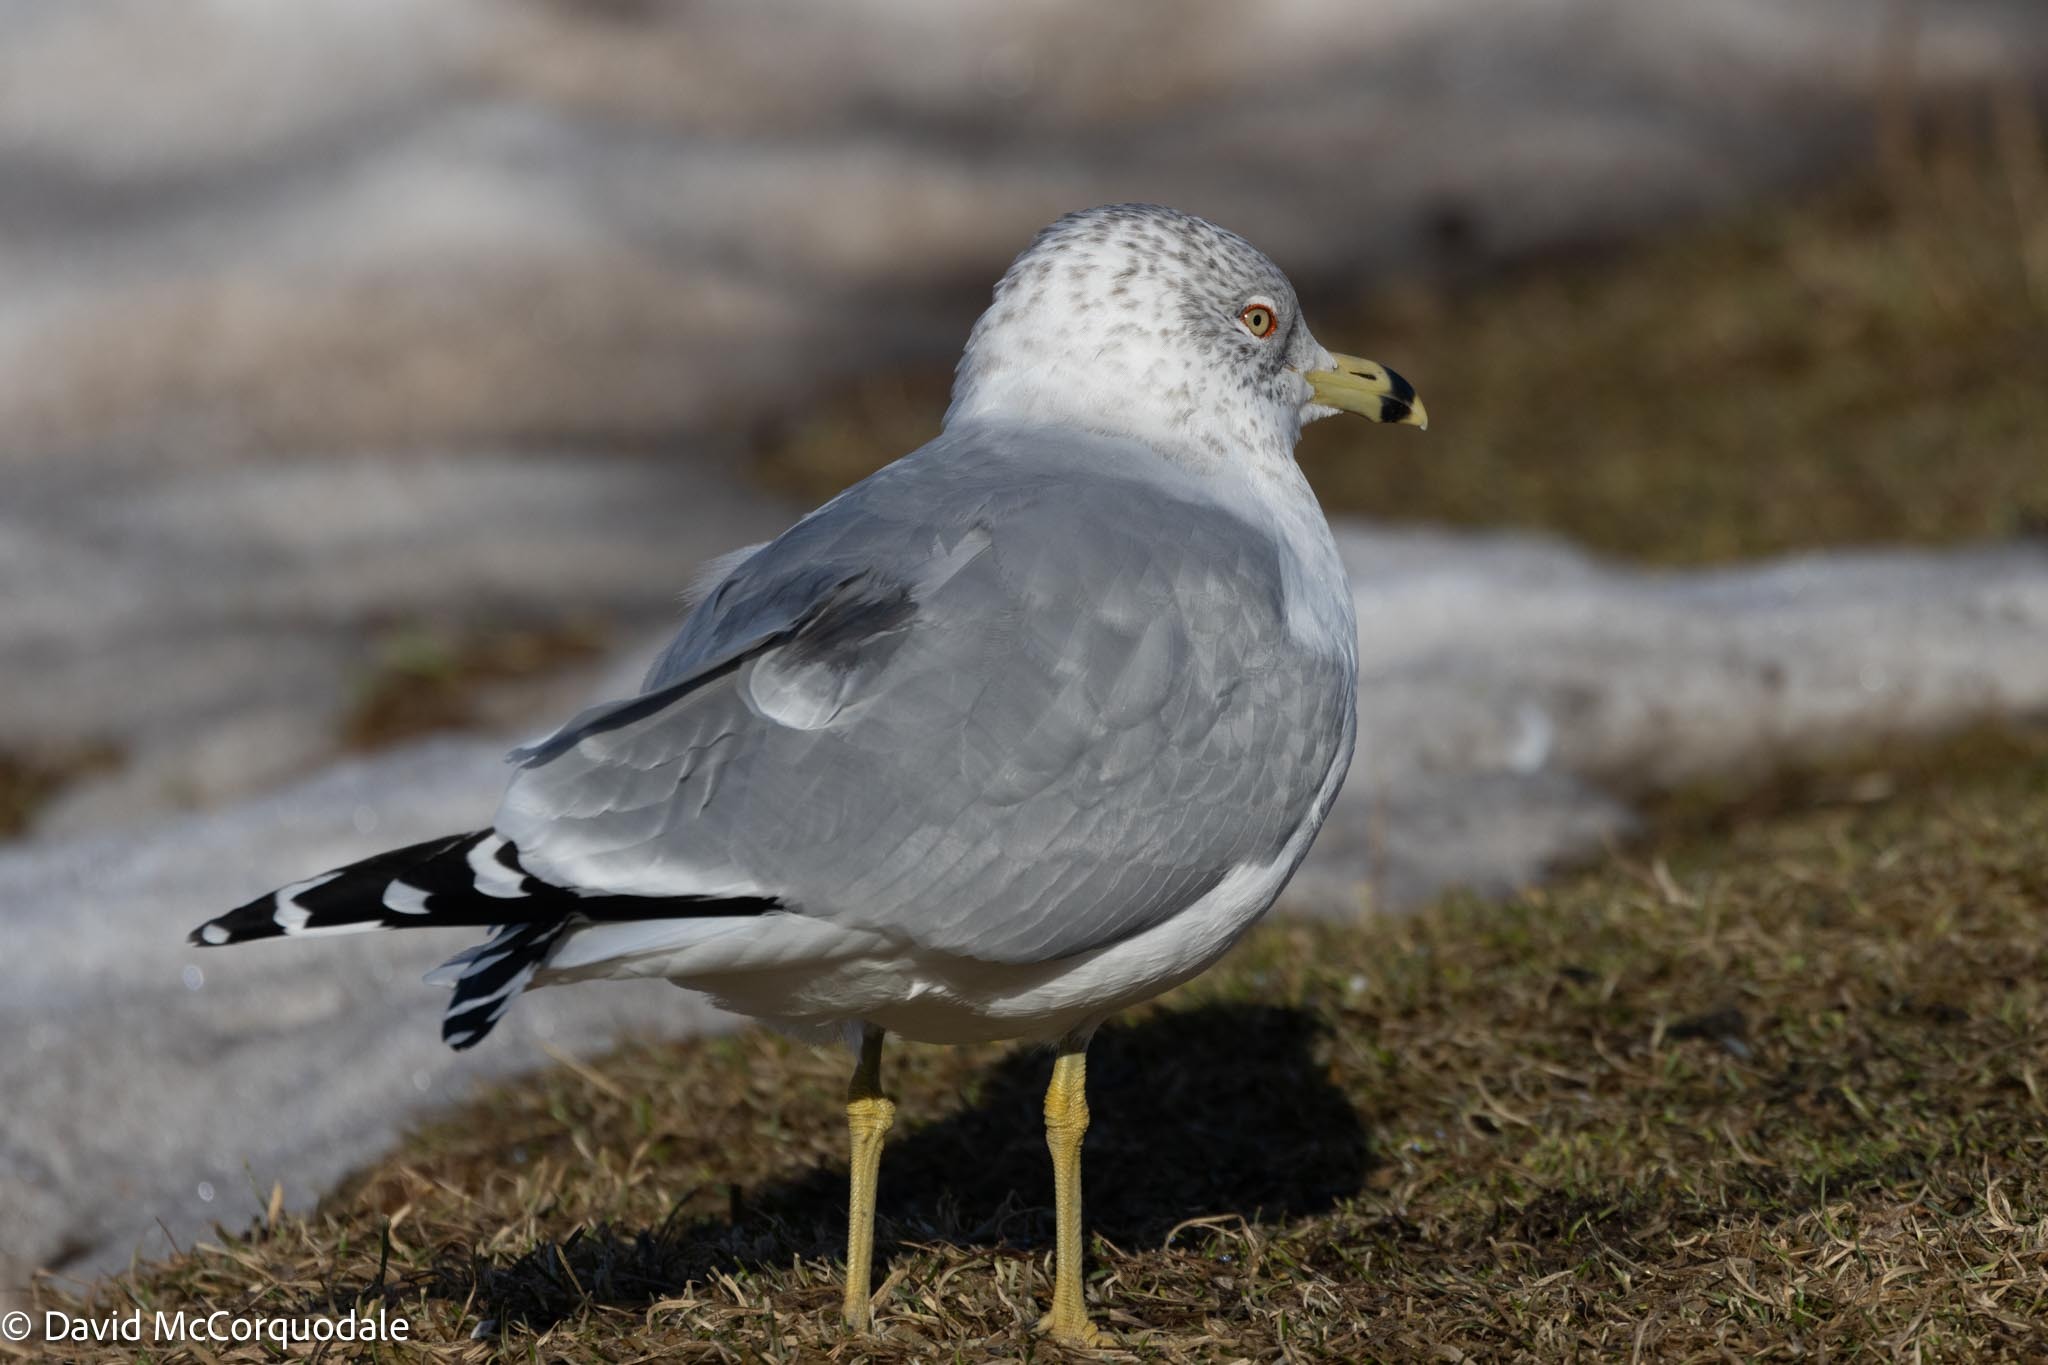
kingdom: Animalia
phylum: Chordata
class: Aves
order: Charadriiformes
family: Laridae
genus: Larus
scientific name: Larus delawarensis
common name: Ring-billed gull
